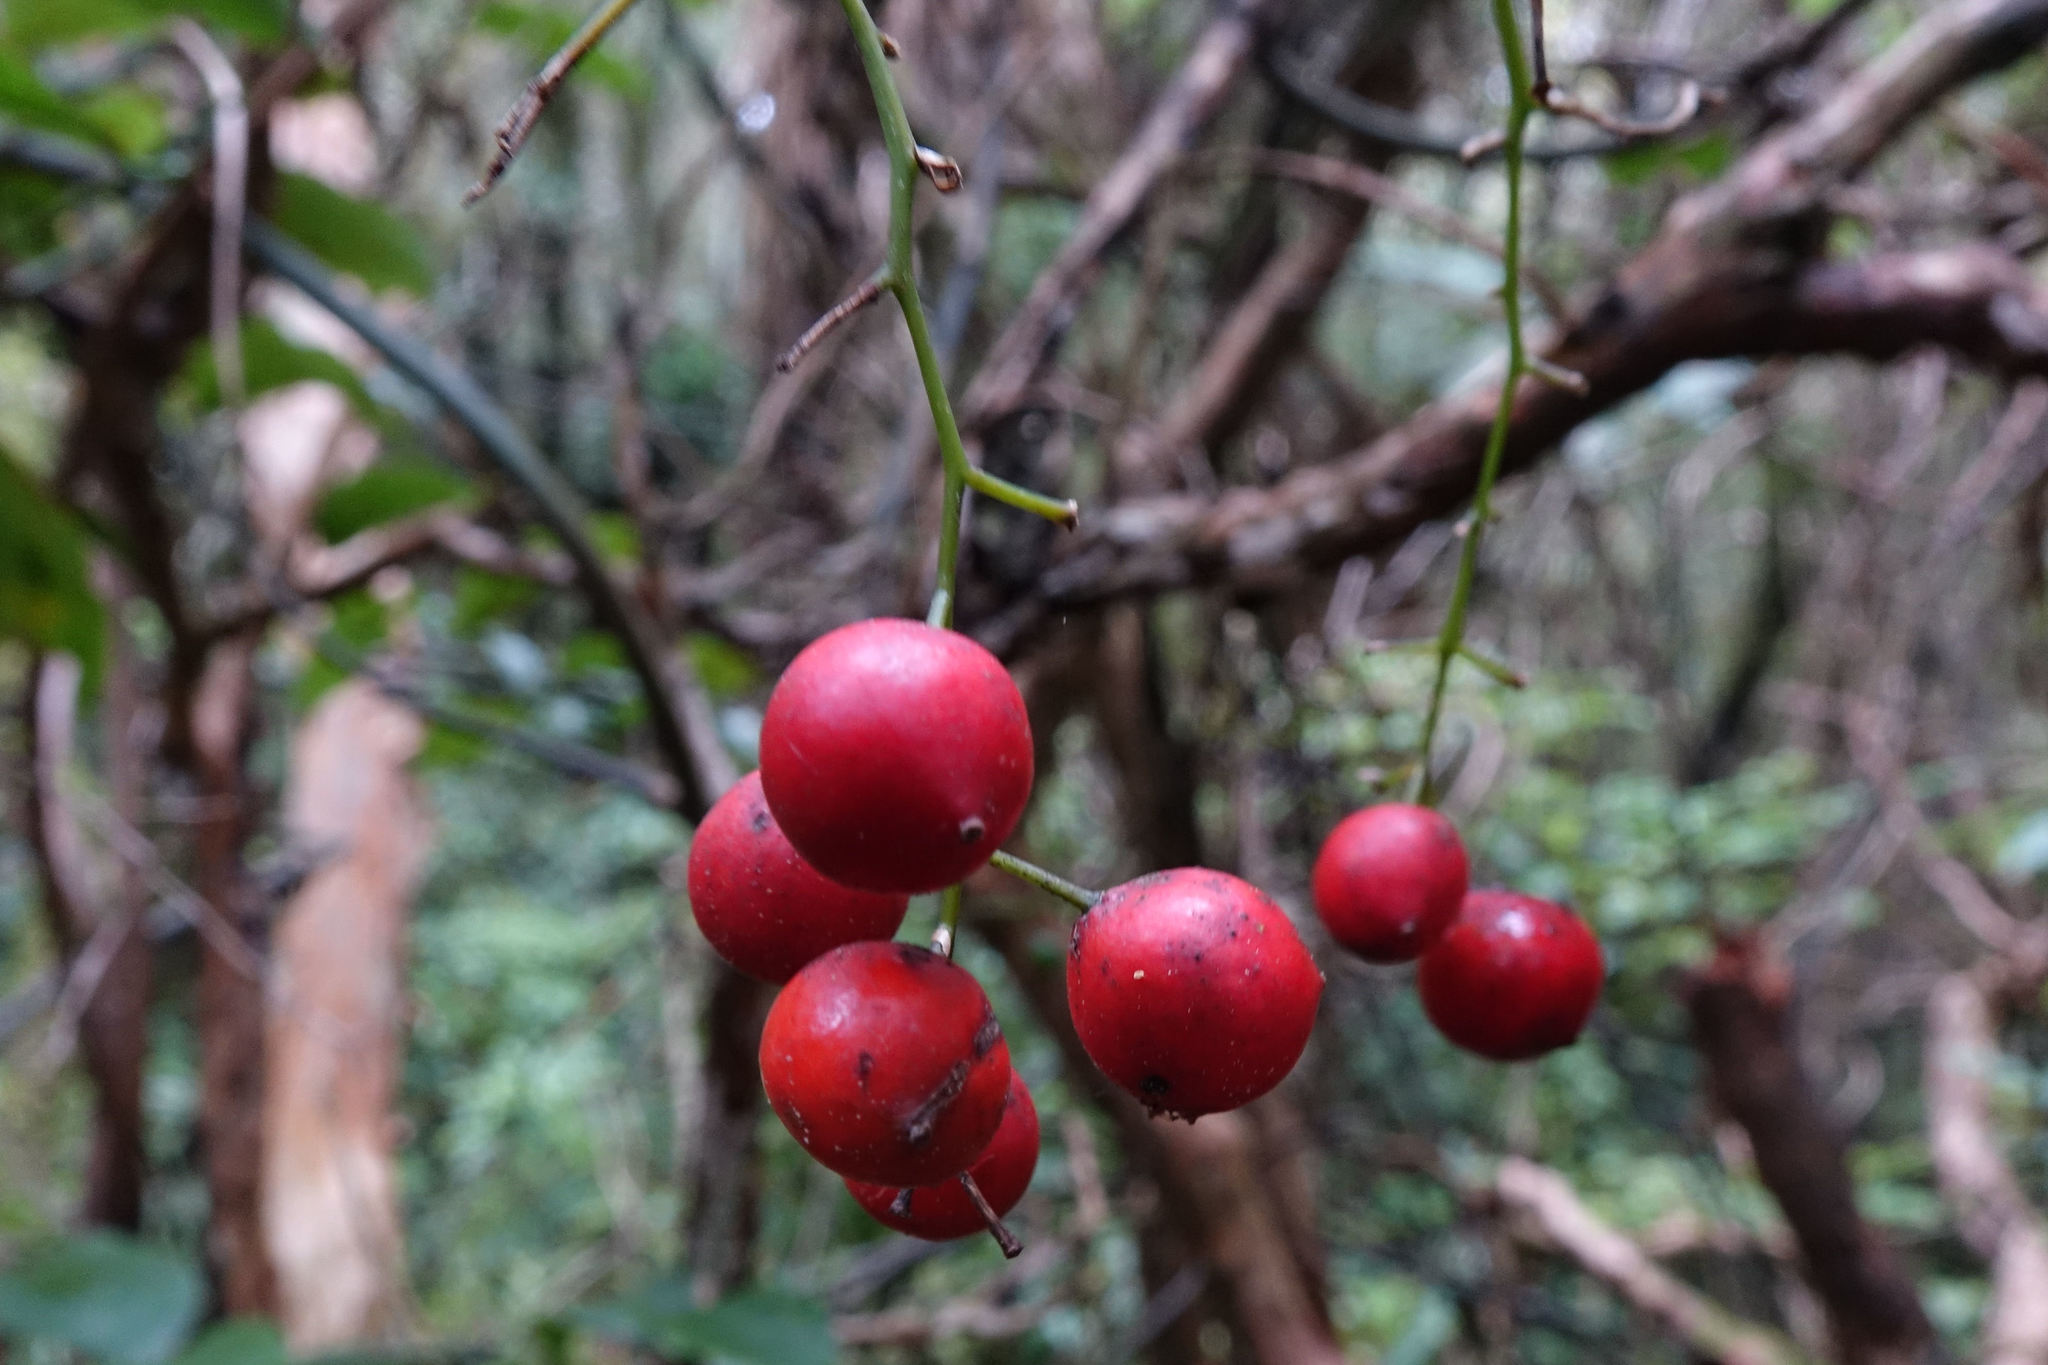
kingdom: Plantae
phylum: Tracheophyta
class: Liliopsida
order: Liliales
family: Ripogonaceae
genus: Ripogonum
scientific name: Ripogonum scandens
